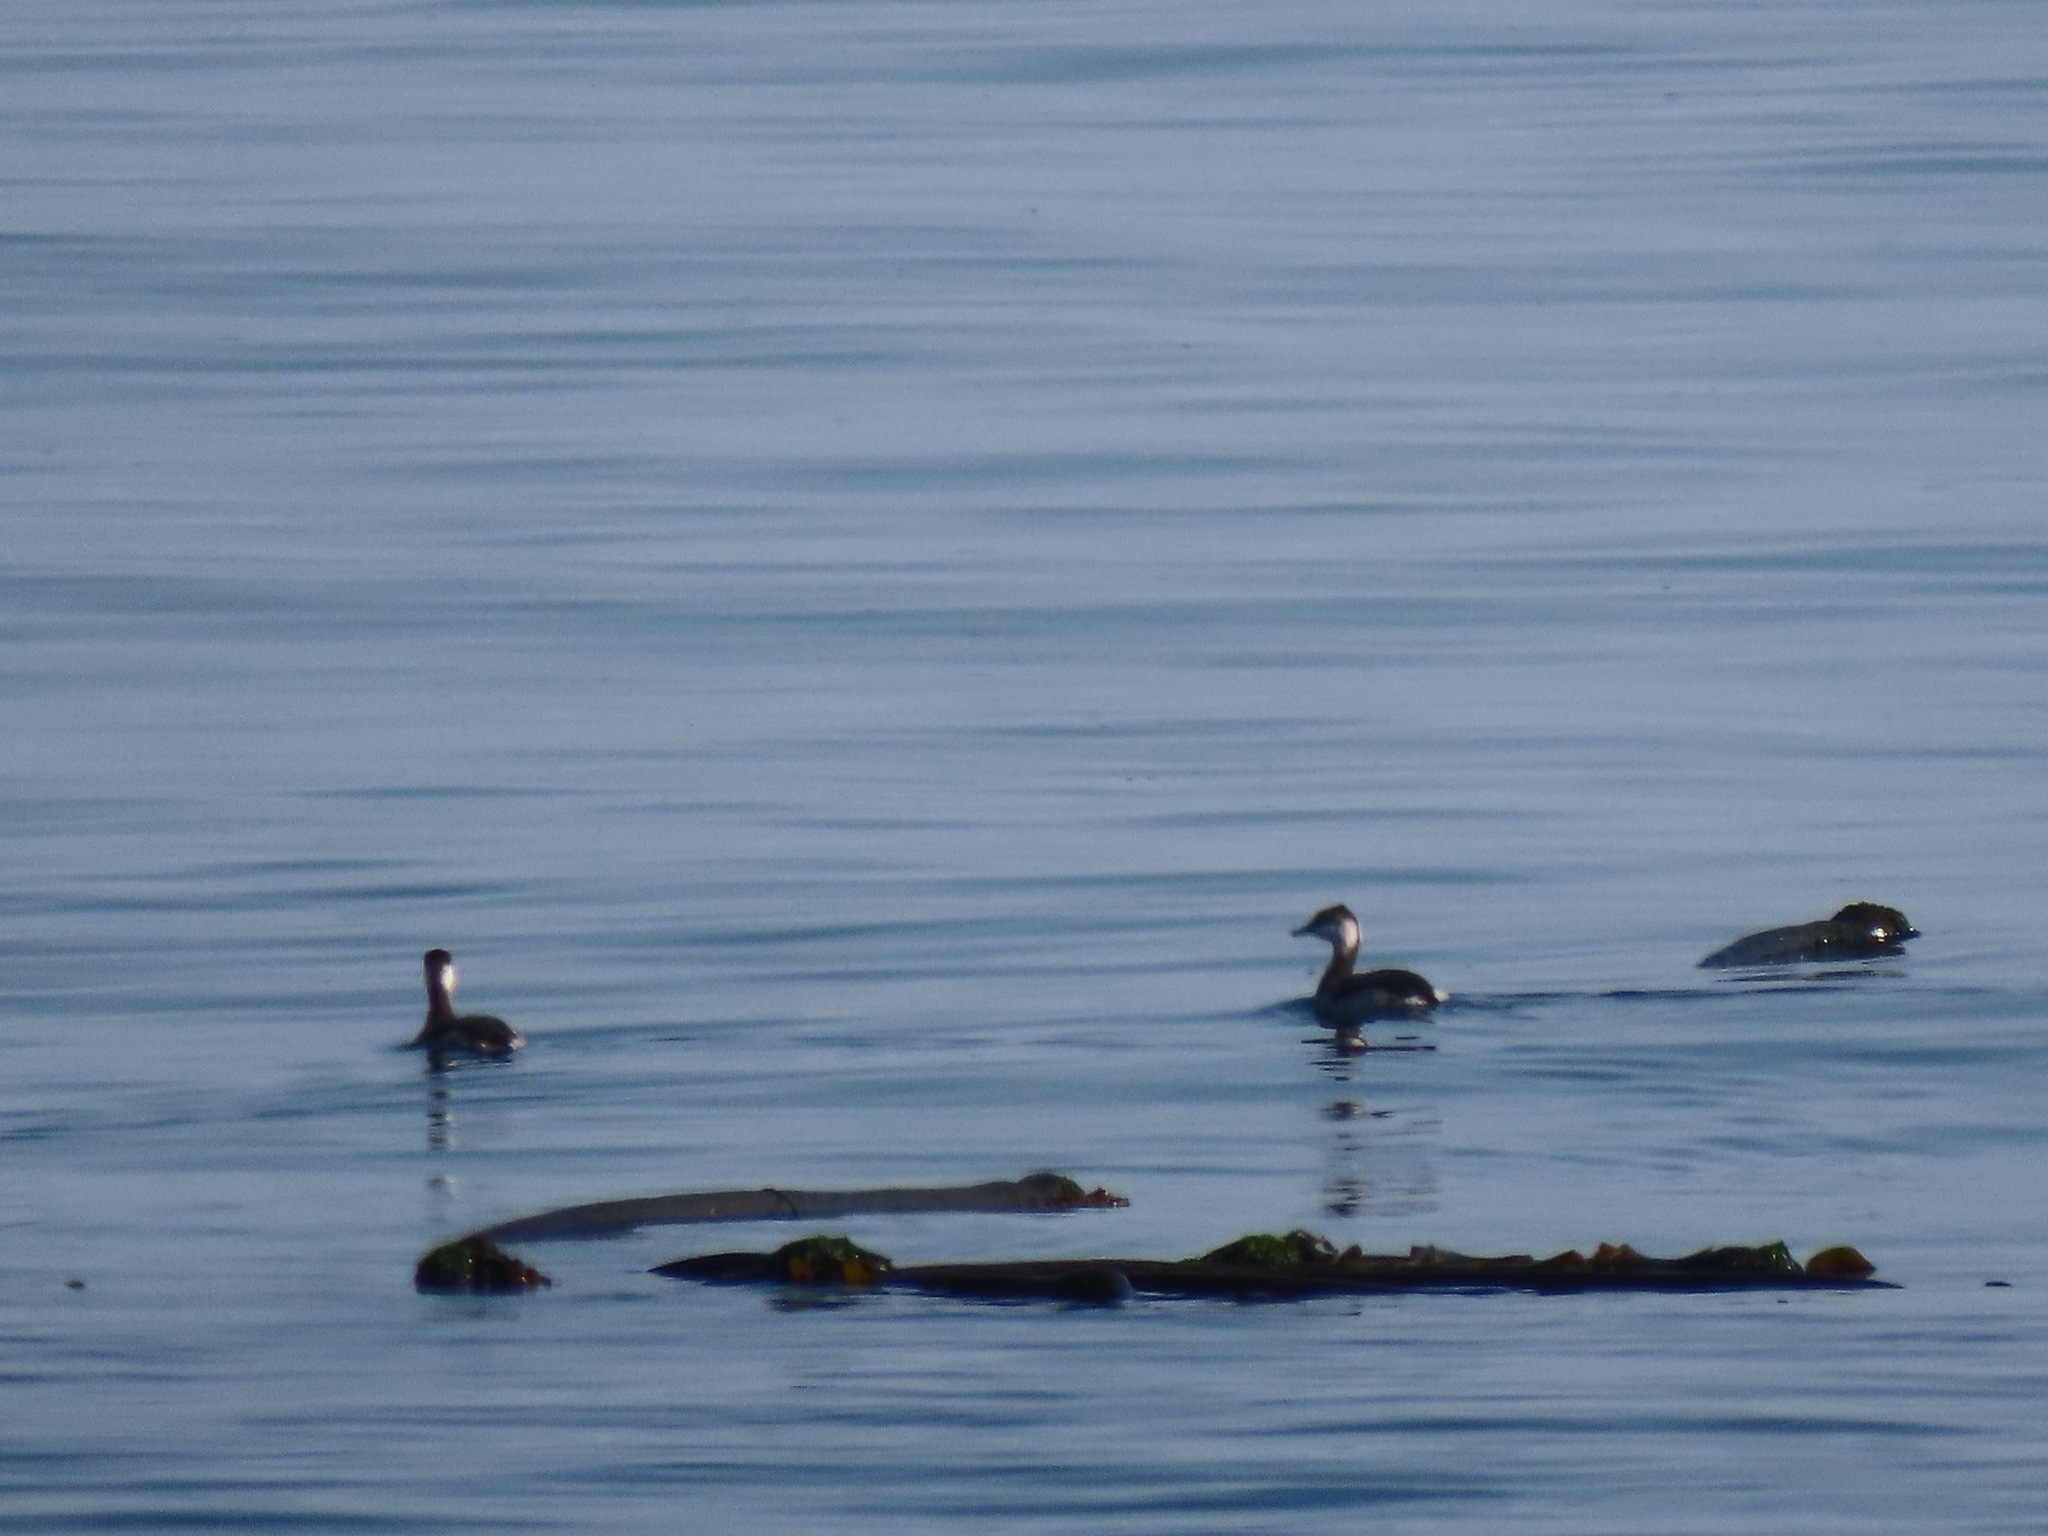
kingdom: Animalia
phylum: Chordata
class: Aves
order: Podicipediformes
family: Podicipedidae
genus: Podiceps
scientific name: Podiceps auritus
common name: Horned grebe
